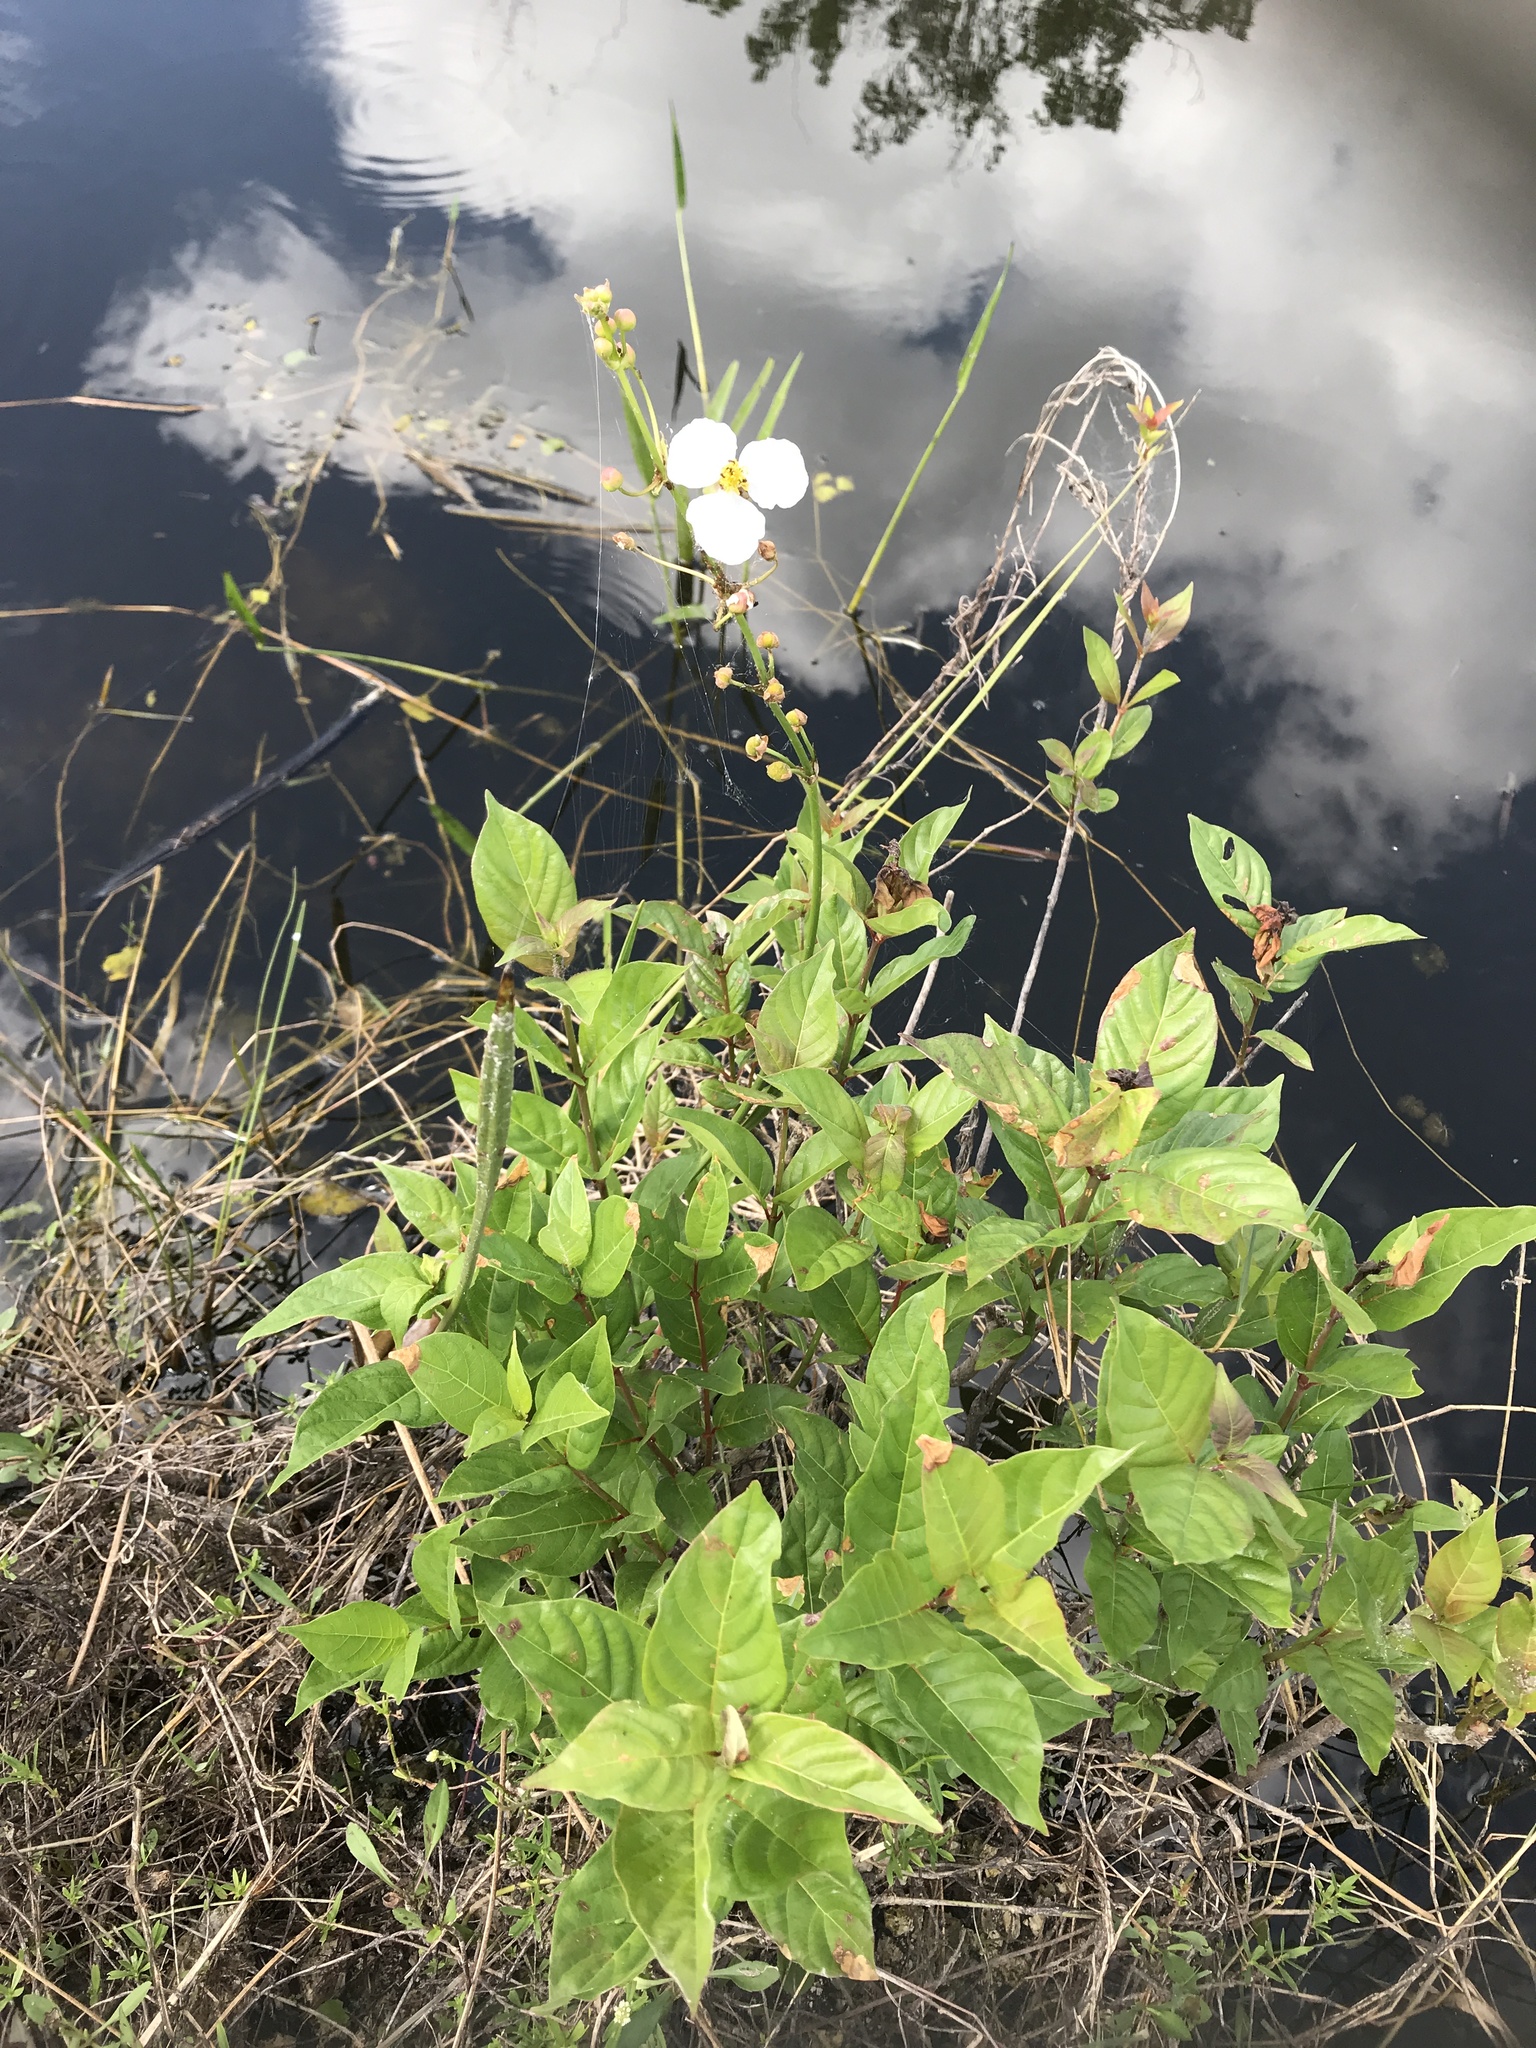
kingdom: Plantae
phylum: Tracheophyta
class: Liliopsida
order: Alismatales
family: Alismataceae
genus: Sagittaria
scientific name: Sagittaria lancifolia
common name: Lance-leaf arrowhead
